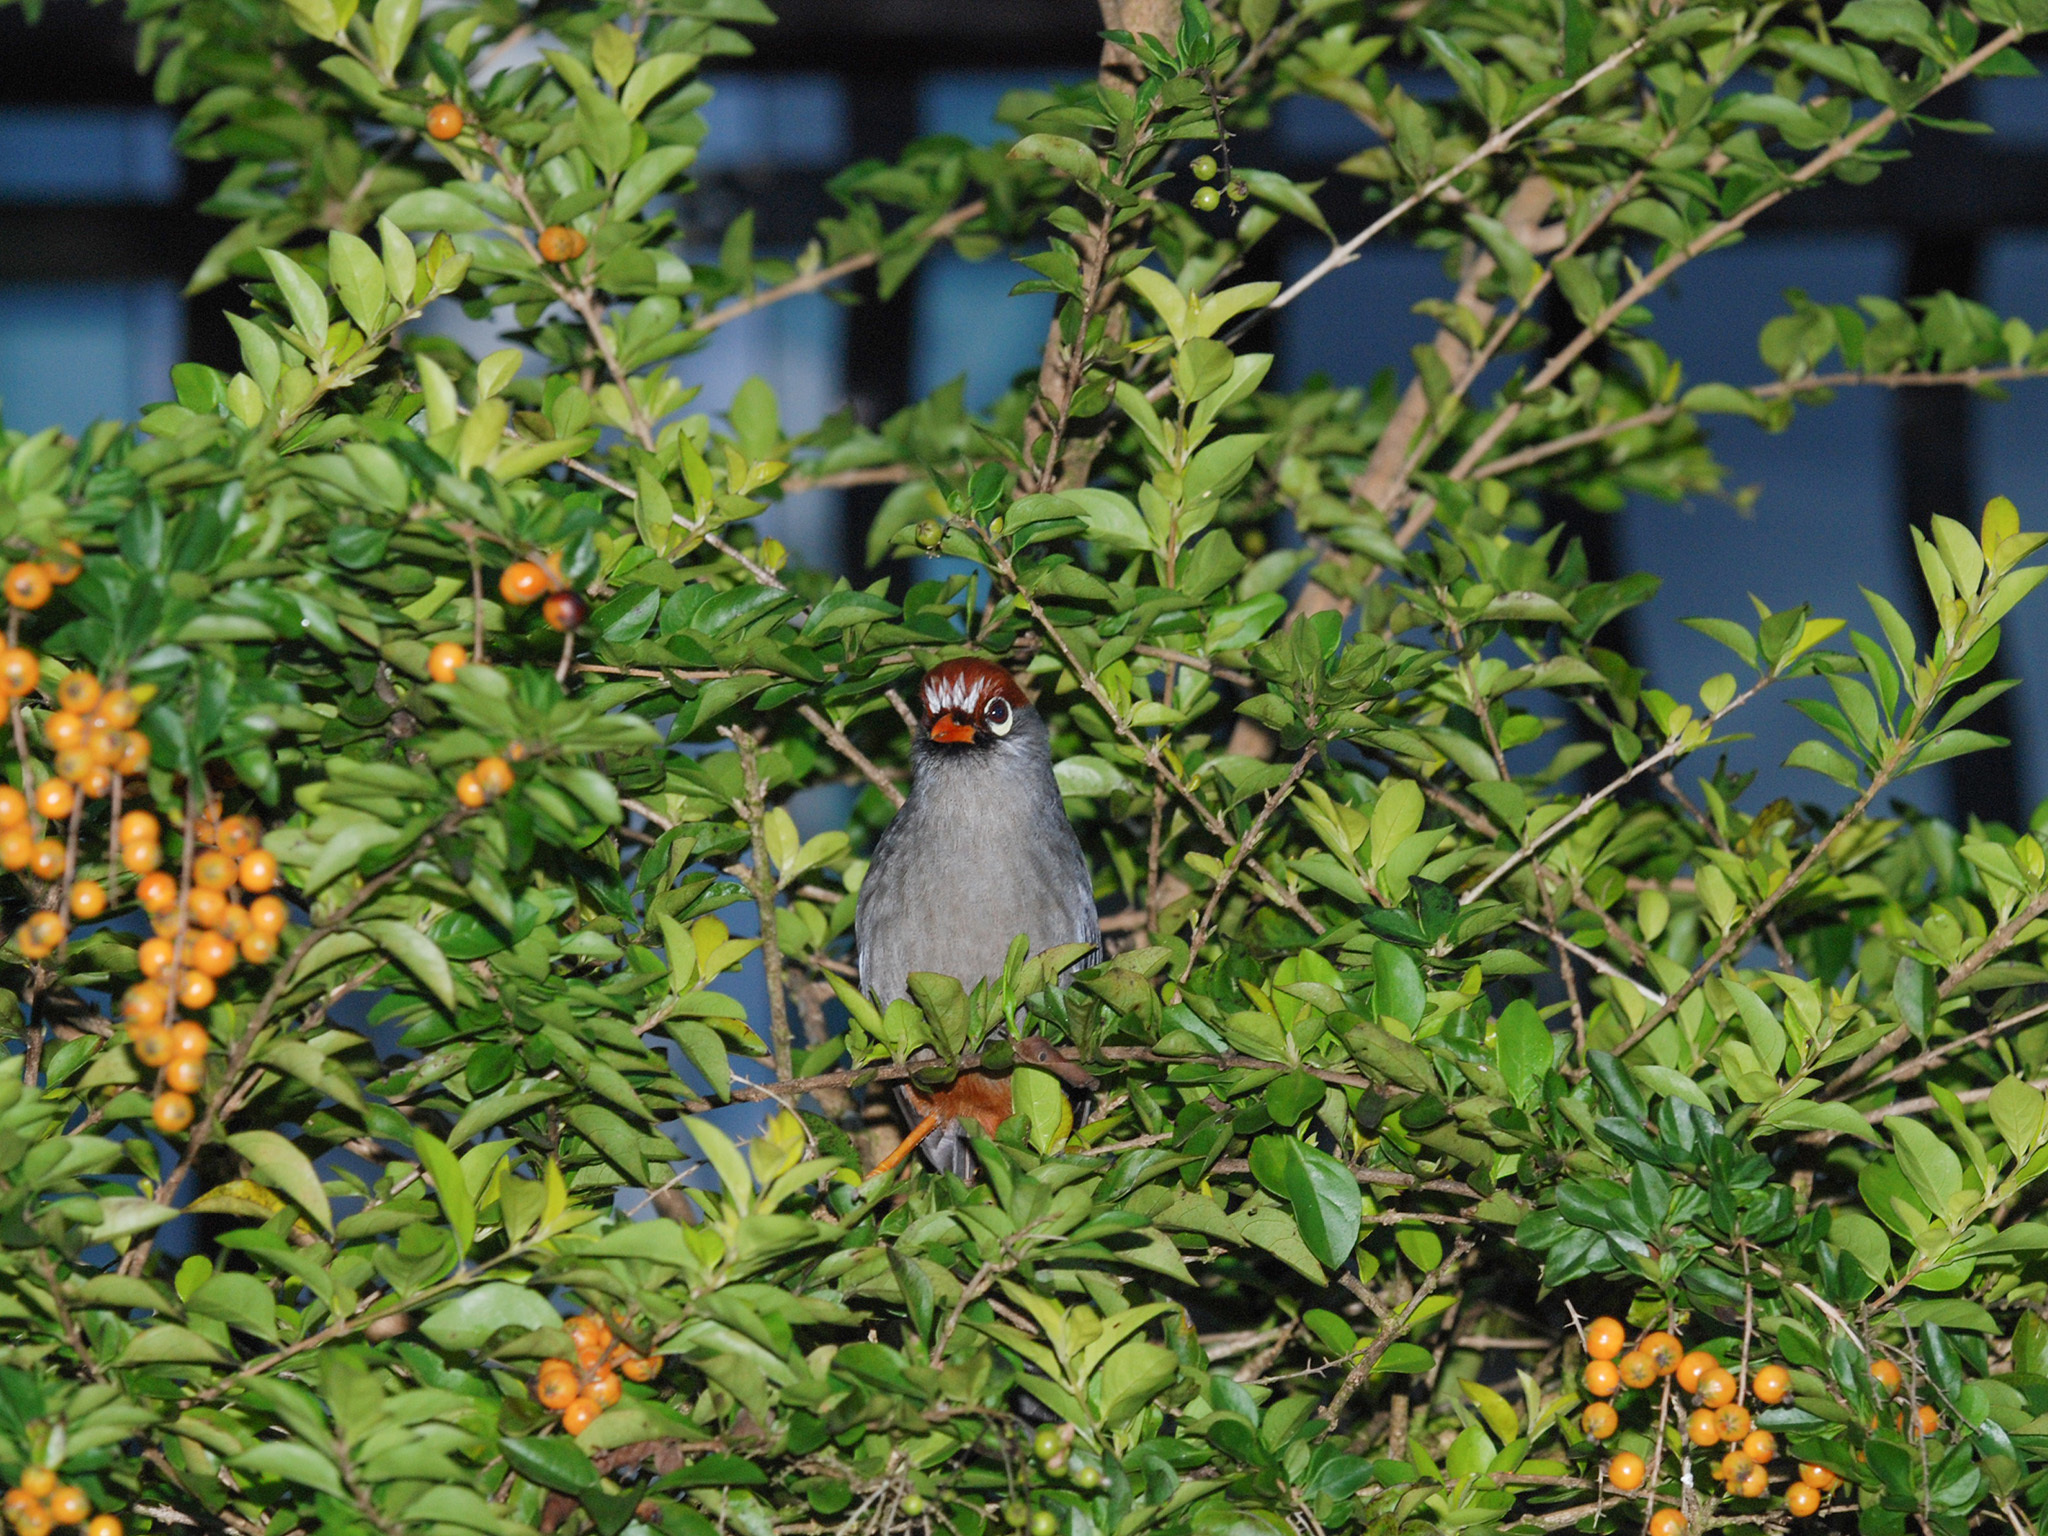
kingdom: Animalia
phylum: Chordata
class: Aves
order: Passeriformes
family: Leiothrichidae
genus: Garrulax
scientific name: Garrulax mitratus
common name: Chestnut-capped laughingthrush
